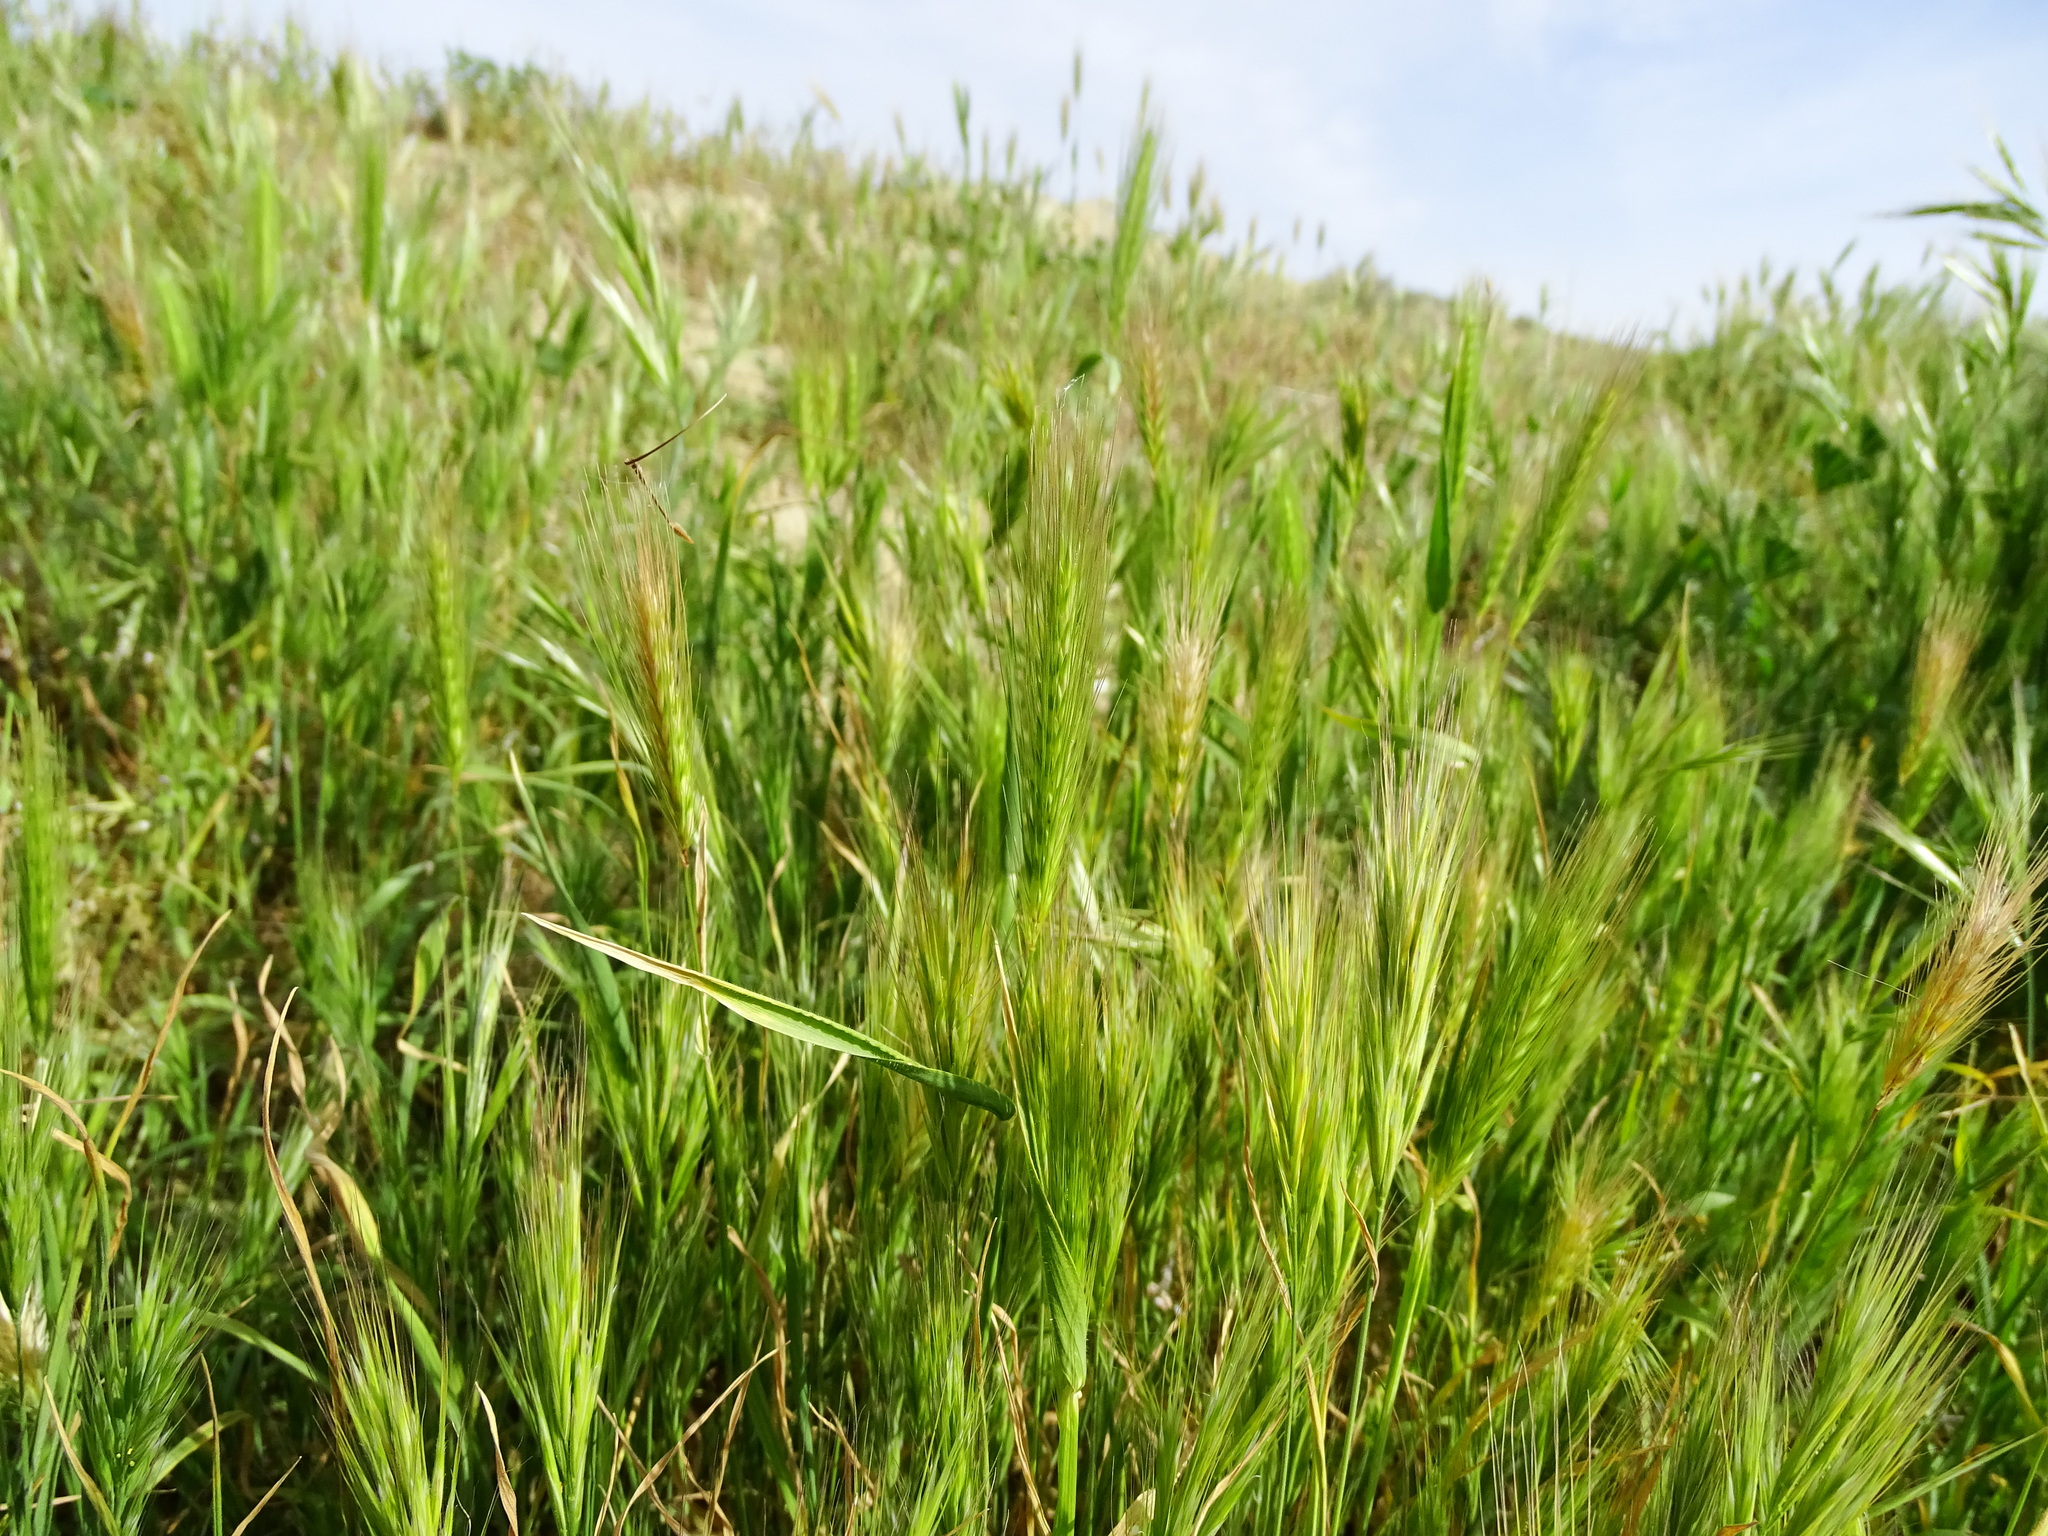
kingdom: Plantae
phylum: Tracheophyta
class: Liliopsida
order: Poales
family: Poaceae
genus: Hordeum
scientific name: Hordeum murinum
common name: Wall barley
